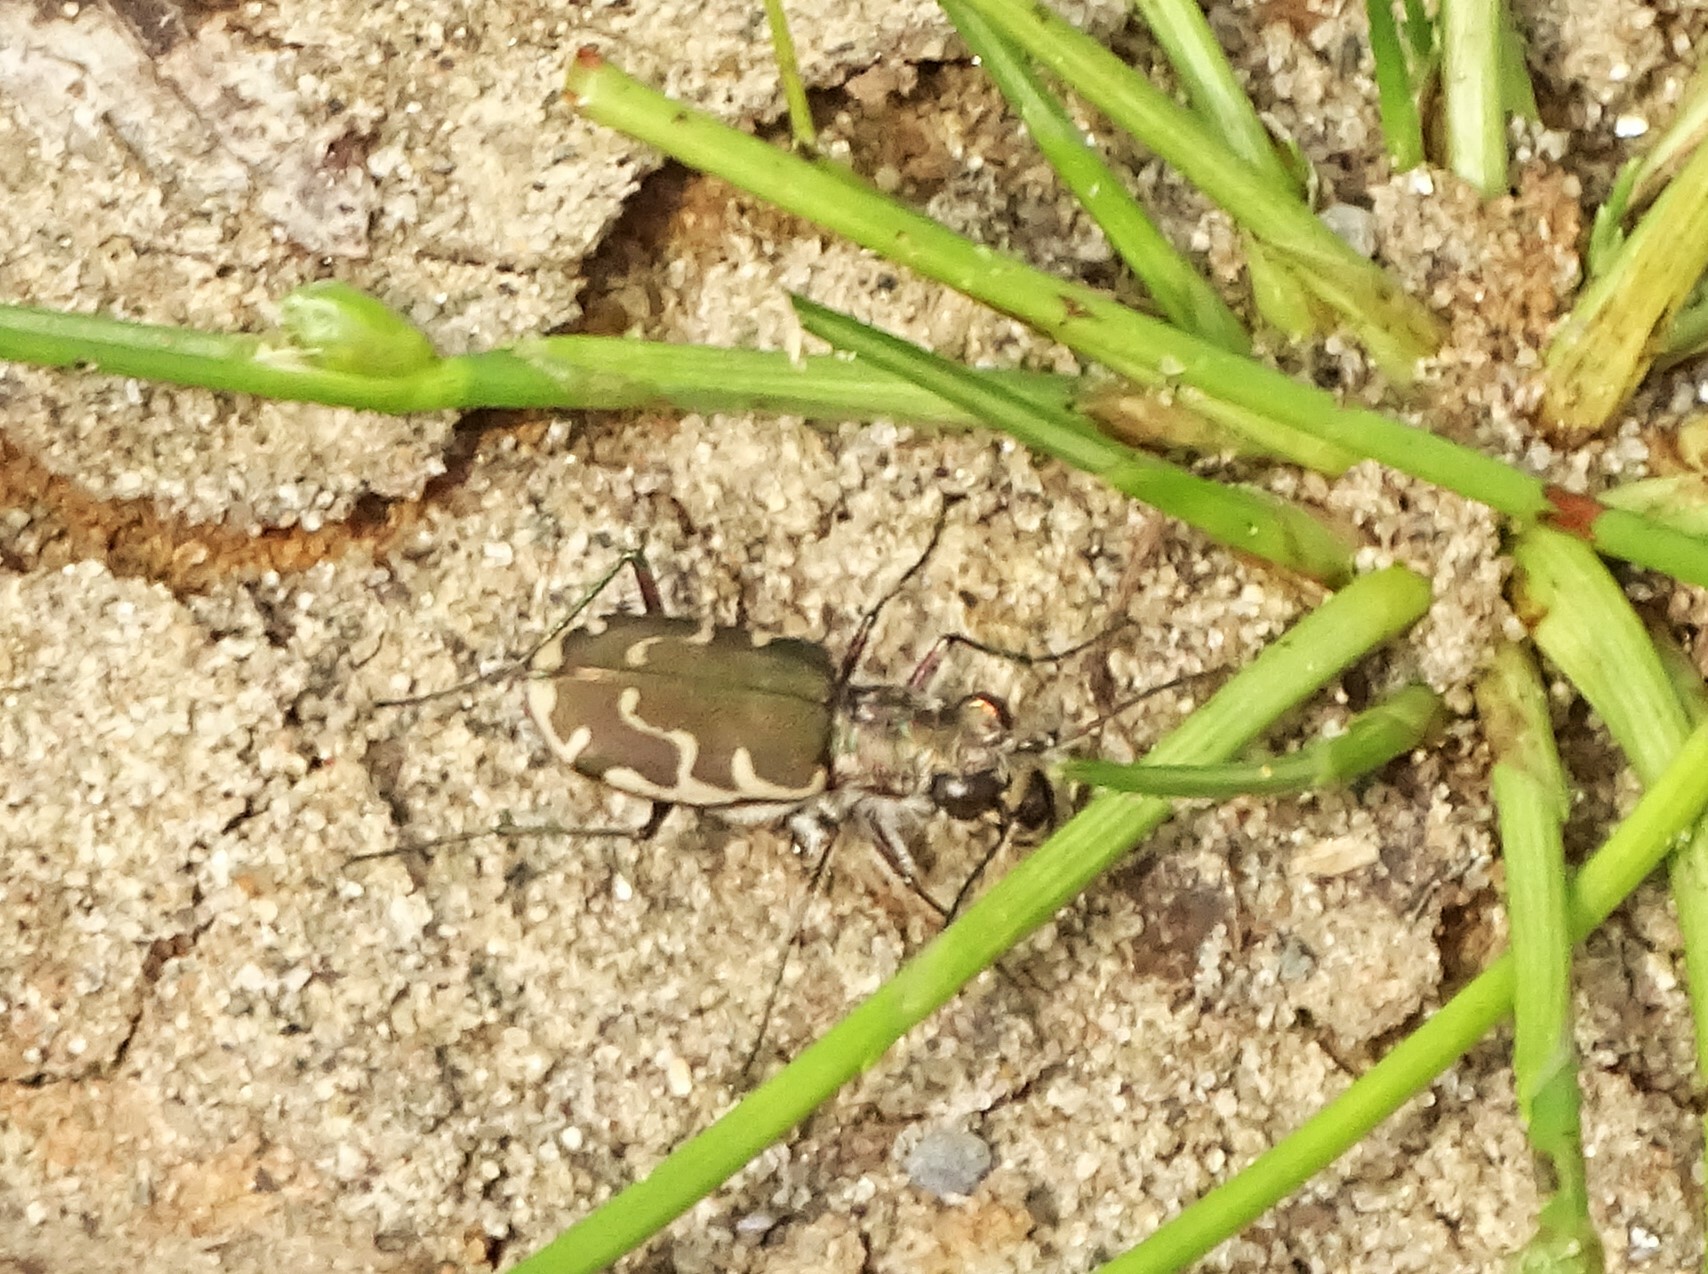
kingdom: Animalia
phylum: Arthropoda
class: Insecta
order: Coleoptera
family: Carabidae
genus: Cicindela
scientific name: Cicindela repanda
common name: Bronzed tiger beetle
